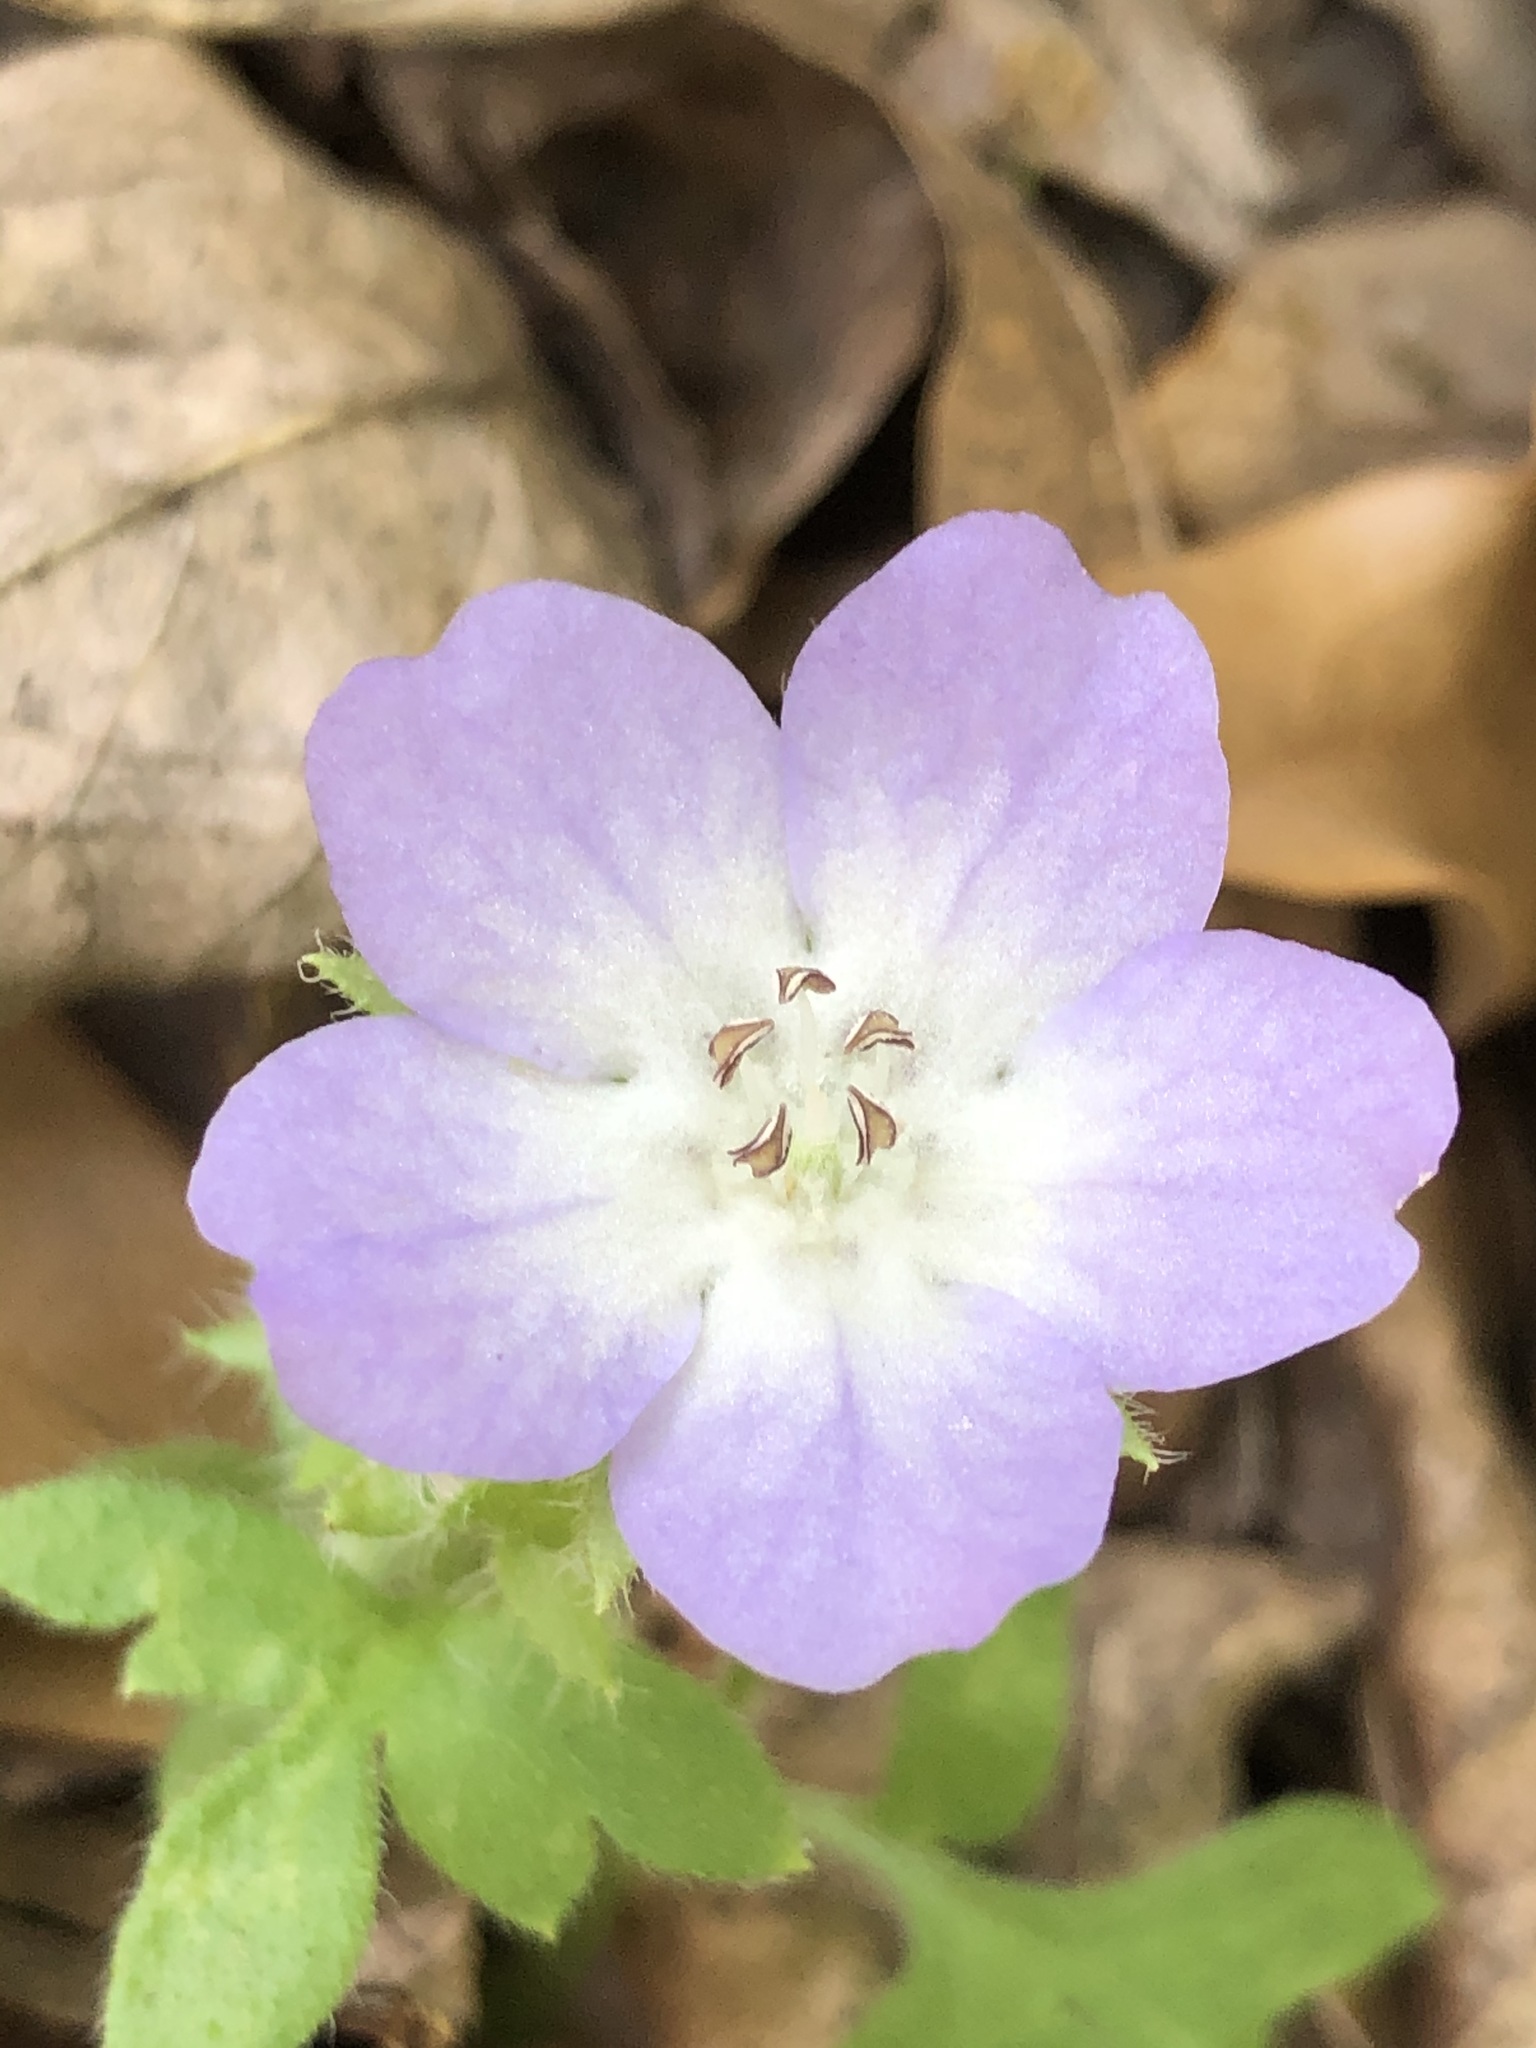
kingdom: Plantae
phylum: Tracheophyta
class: Magnoliopsida
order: Boraginales
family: Hydrophyllaceae
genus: Nemophila
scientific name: Nemophila phacelioides
